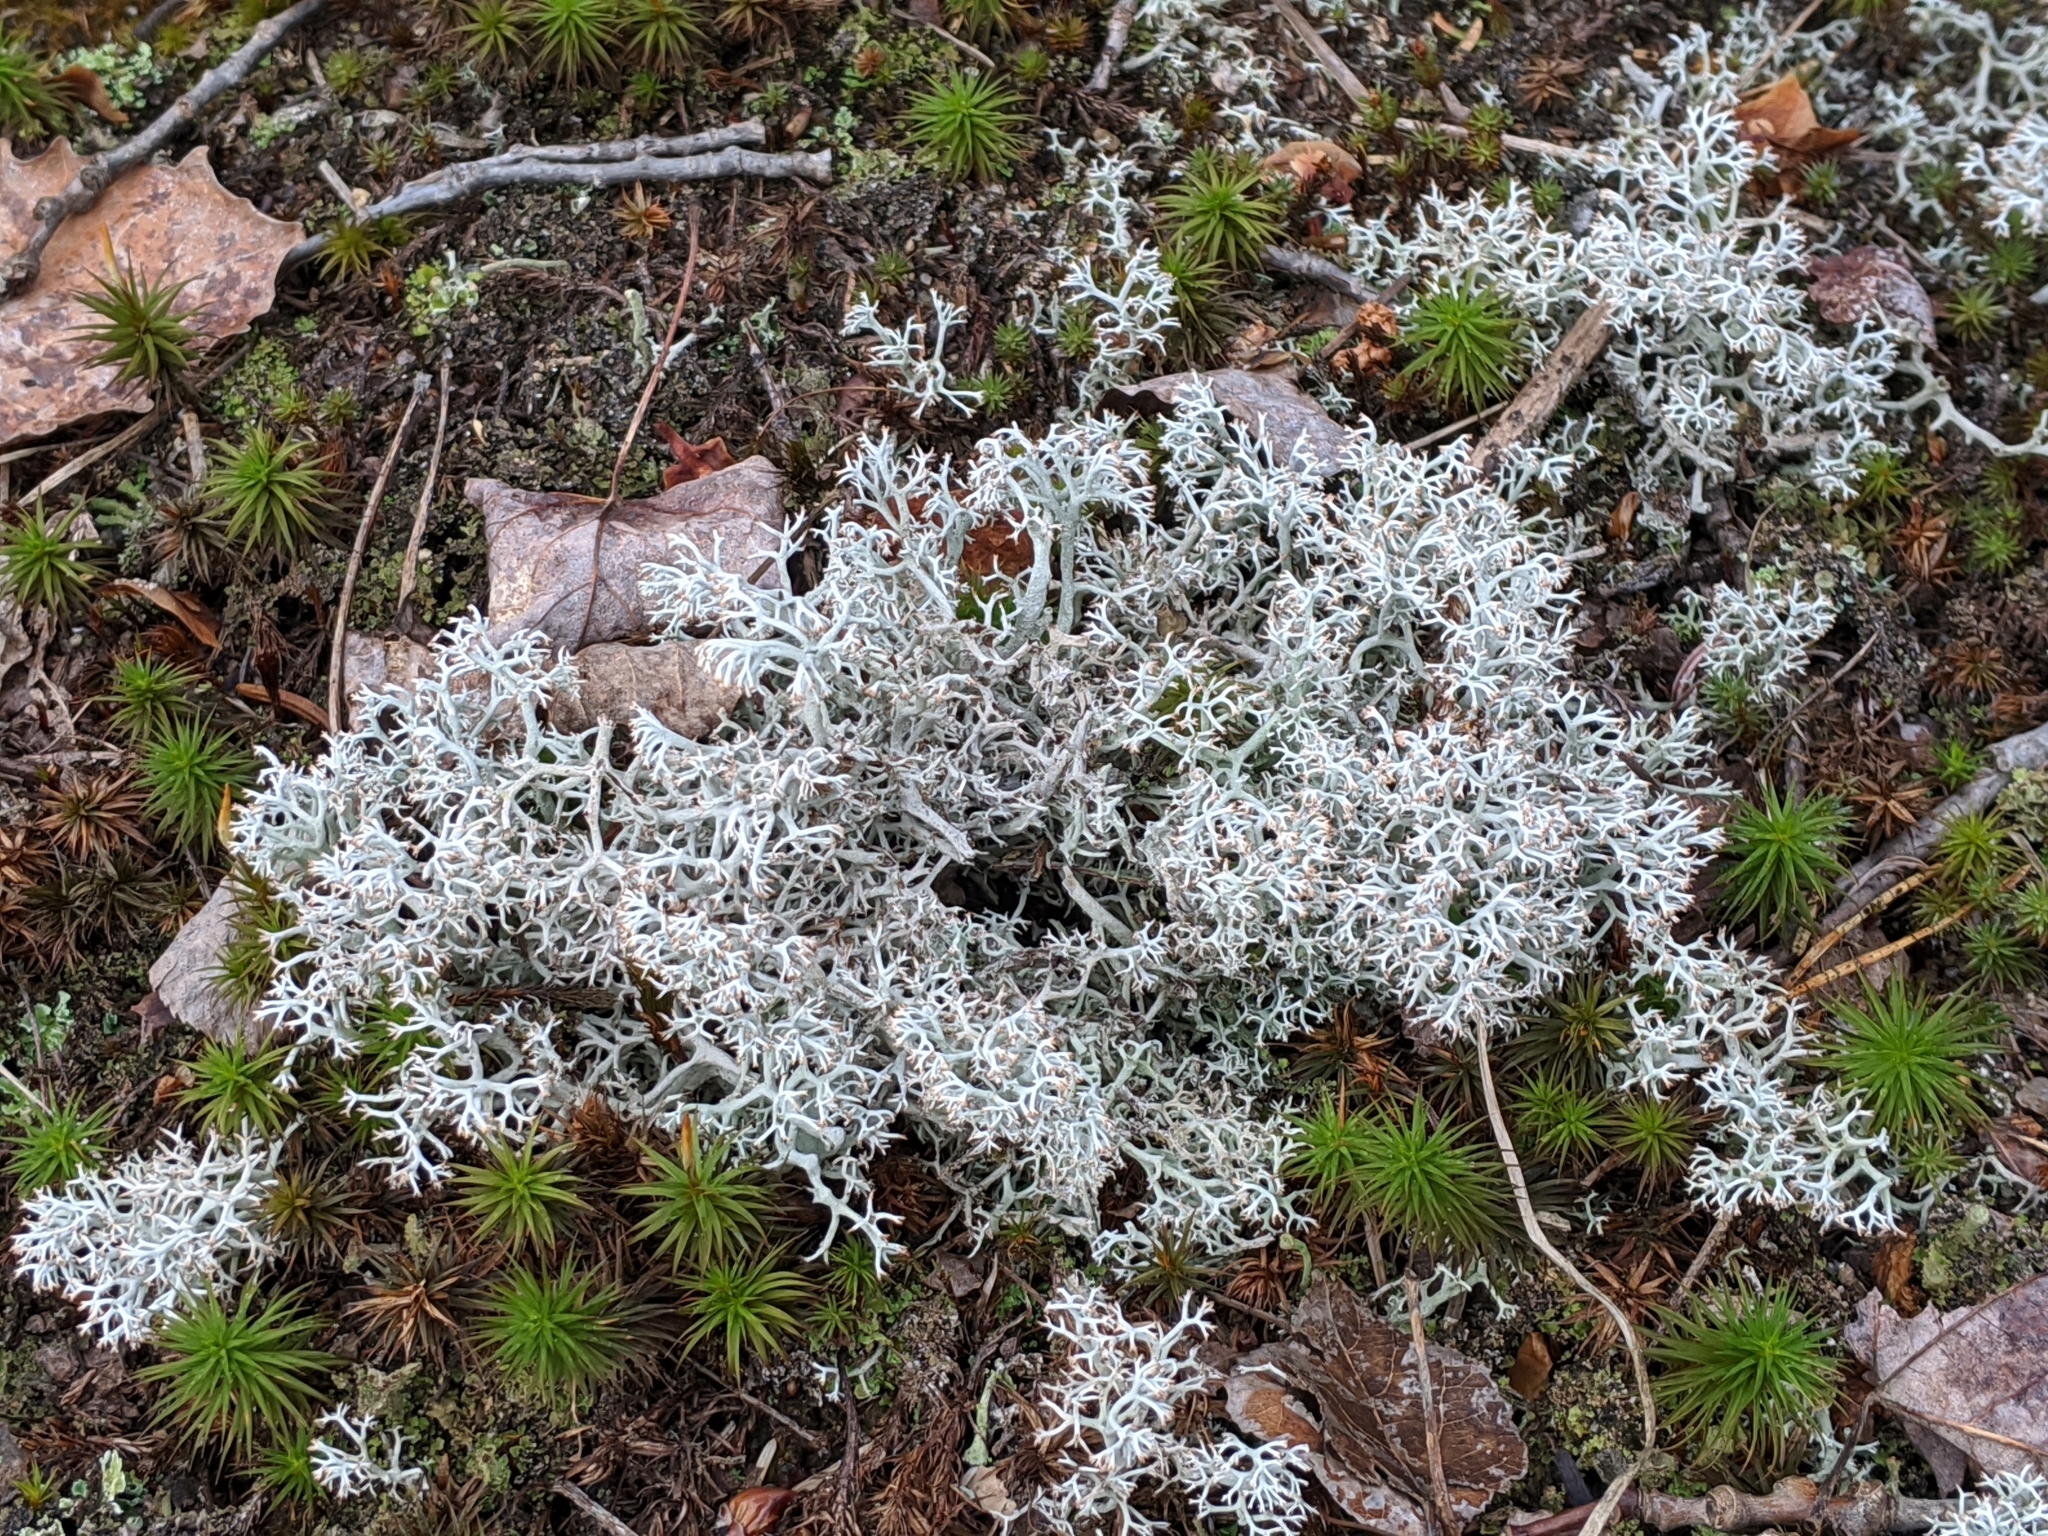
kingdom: Fungi
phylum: Ascomycota
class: Lecanoromycetes
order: Lecanorales
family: Cladoniaceae
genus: Cladonia
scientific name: Cladonia rangiferina
